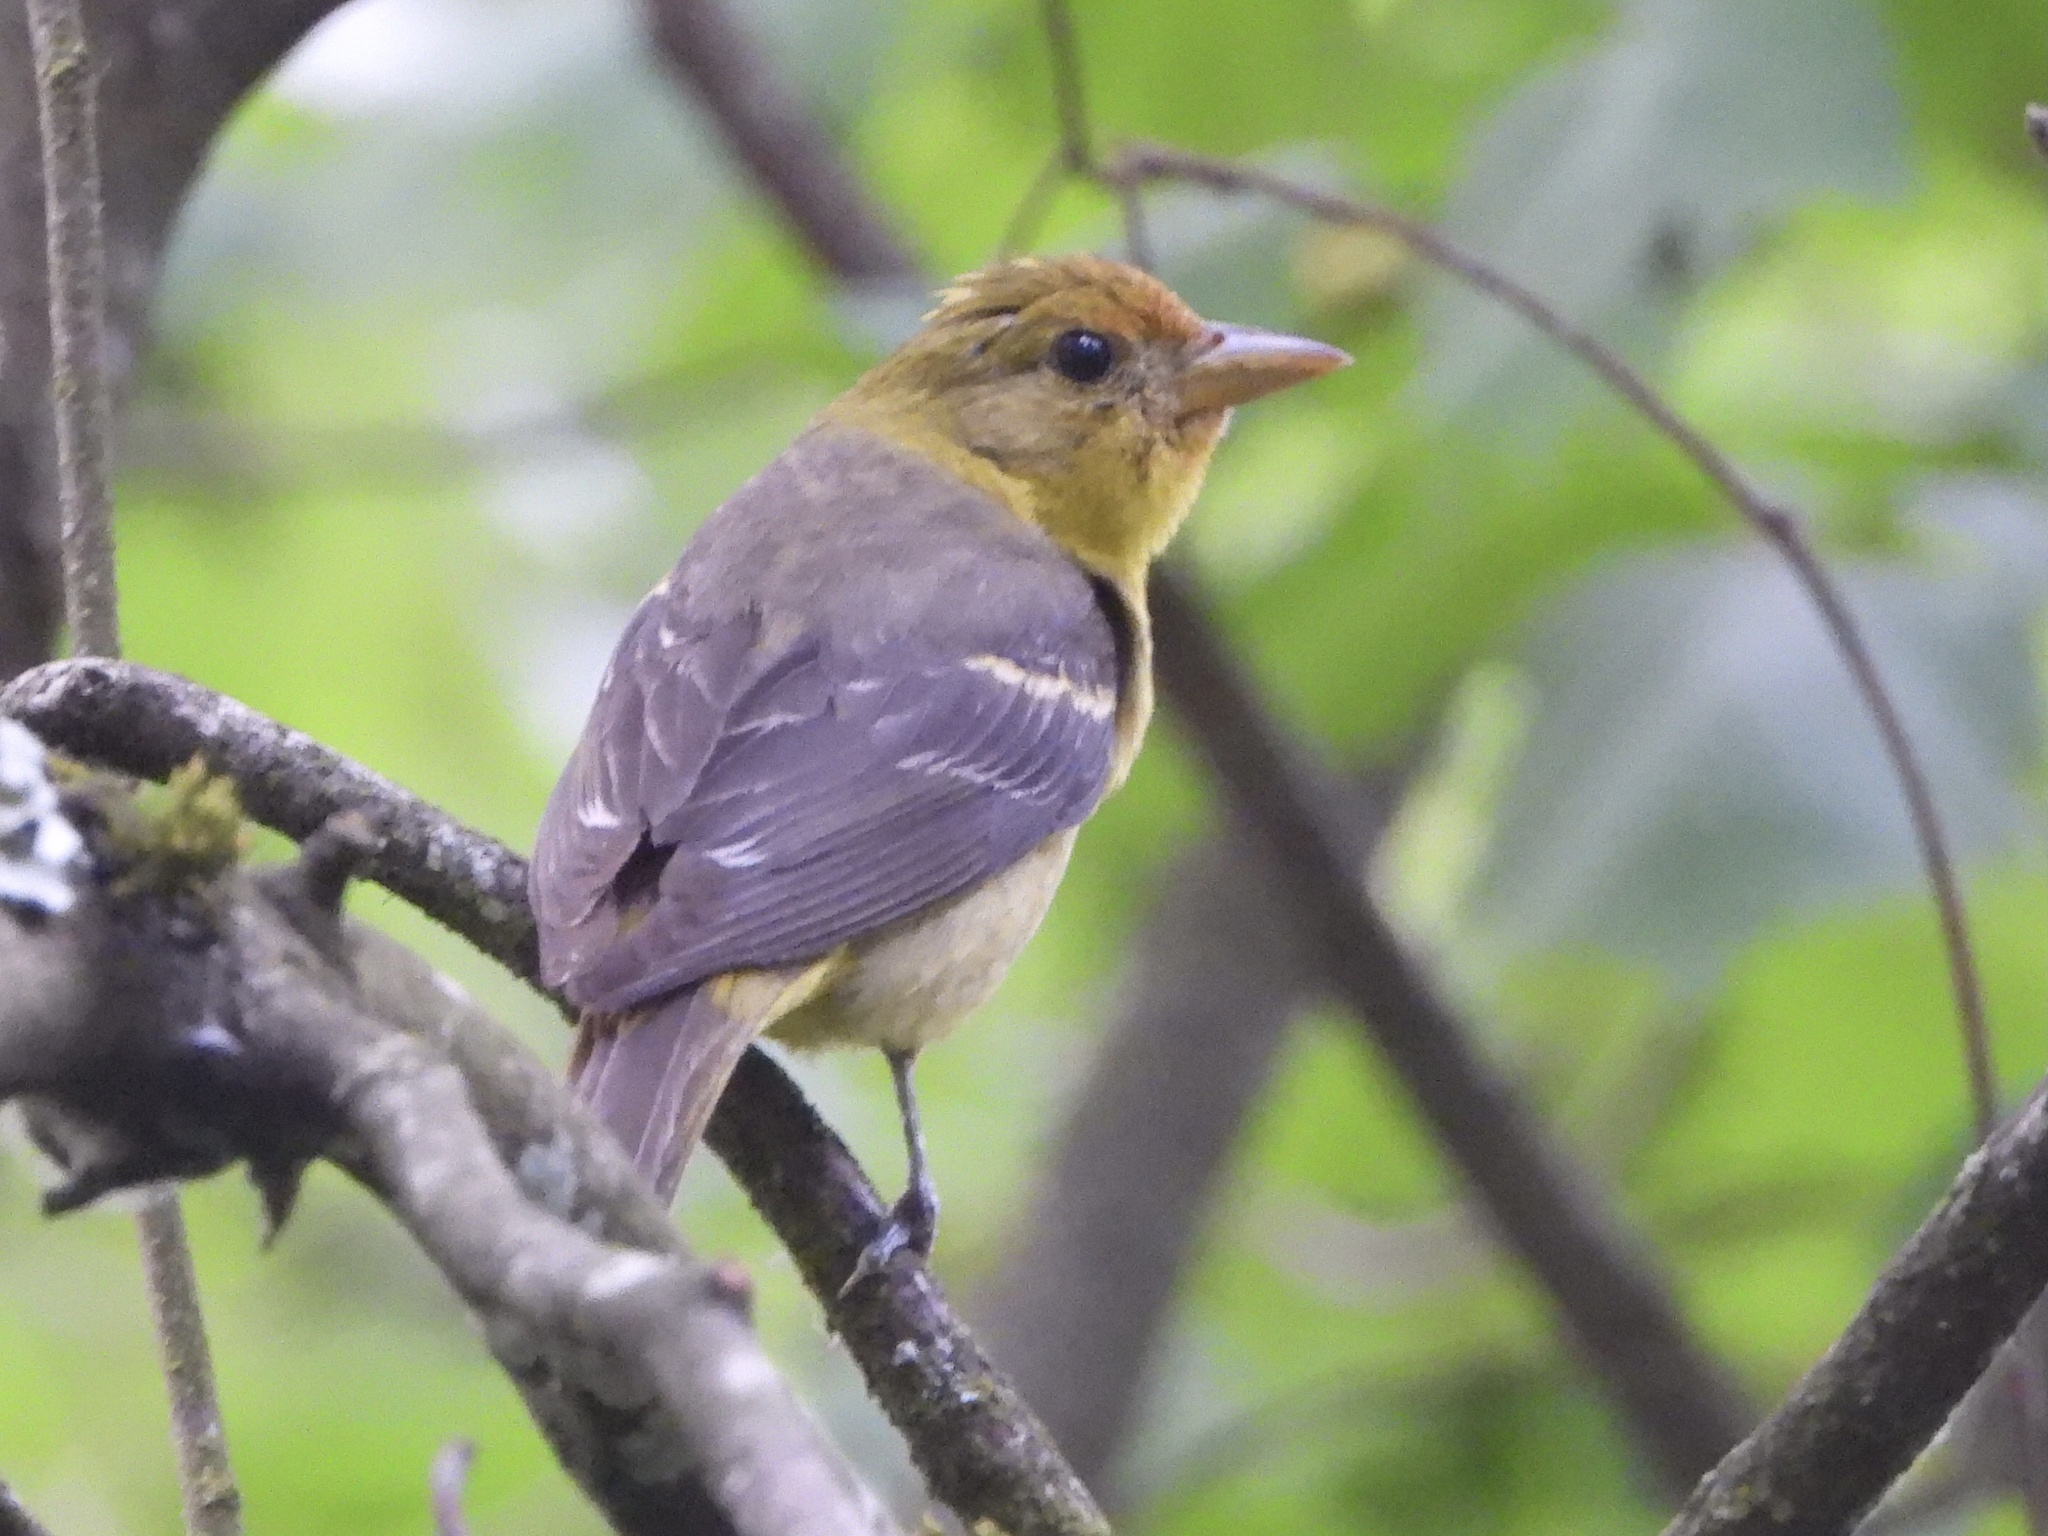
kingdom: Animalia
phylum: Chordata
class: Aves
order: Passeriformes
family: Cardinalidae
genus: Piranga
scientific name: Piranga ludoviciana
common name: Western tanager
